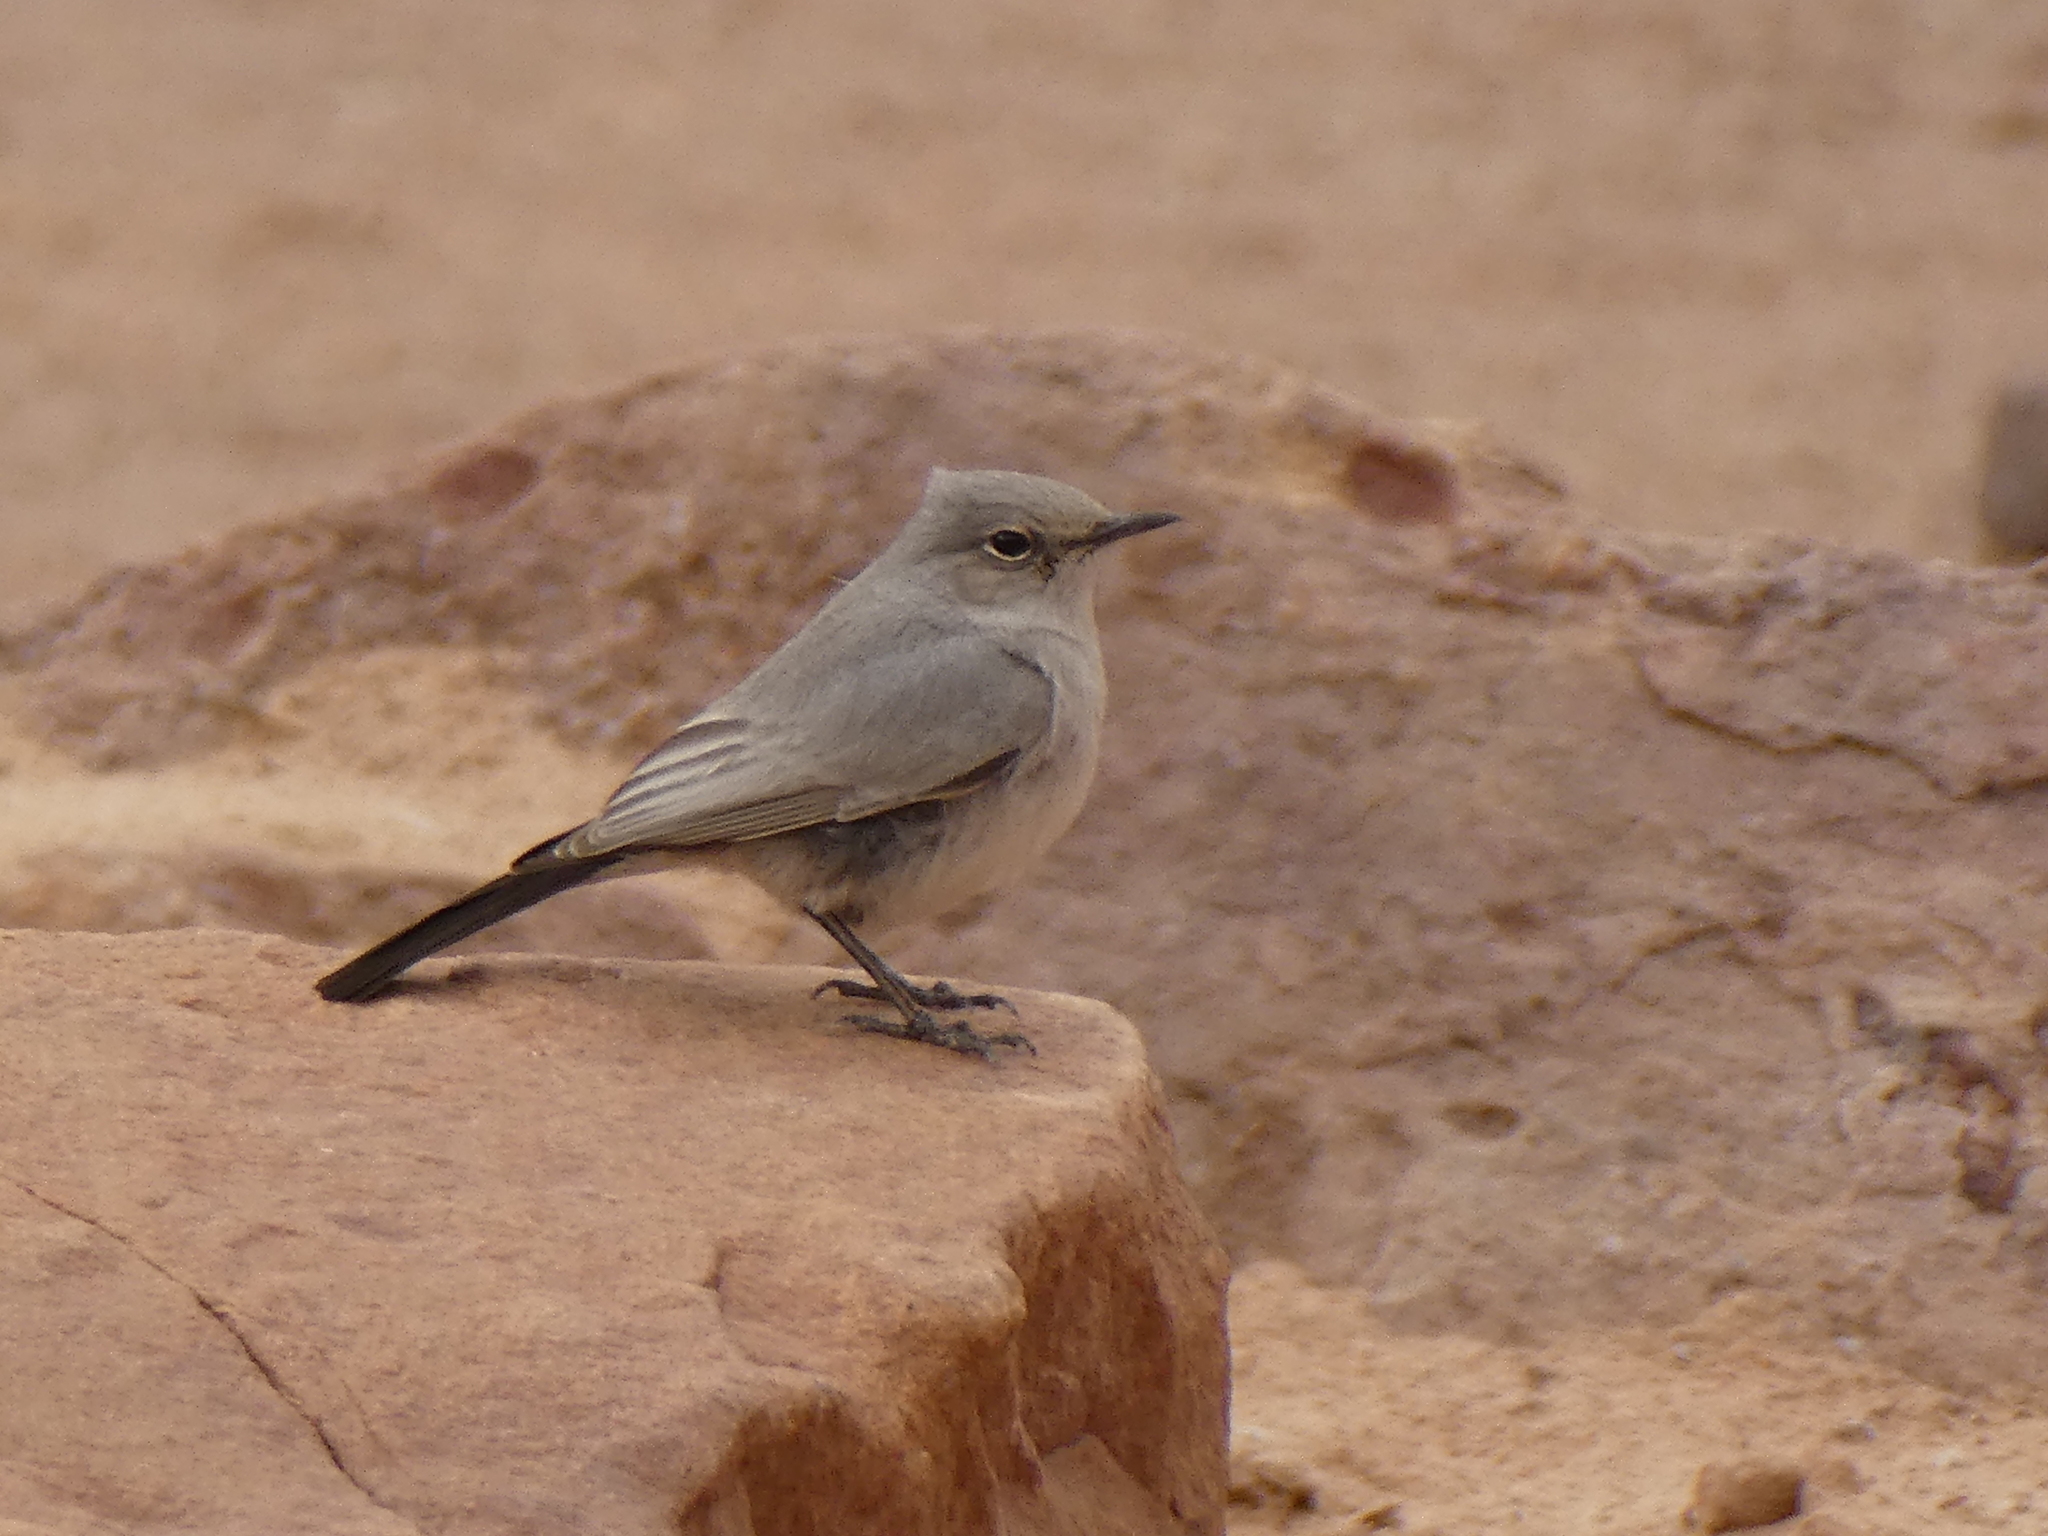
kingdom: Animalia
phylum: Chordata
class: Aves
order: Passeriformes
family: Muscicapidae
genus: Oenanthe
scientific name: Oenanthe melanura
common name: Blackstart
